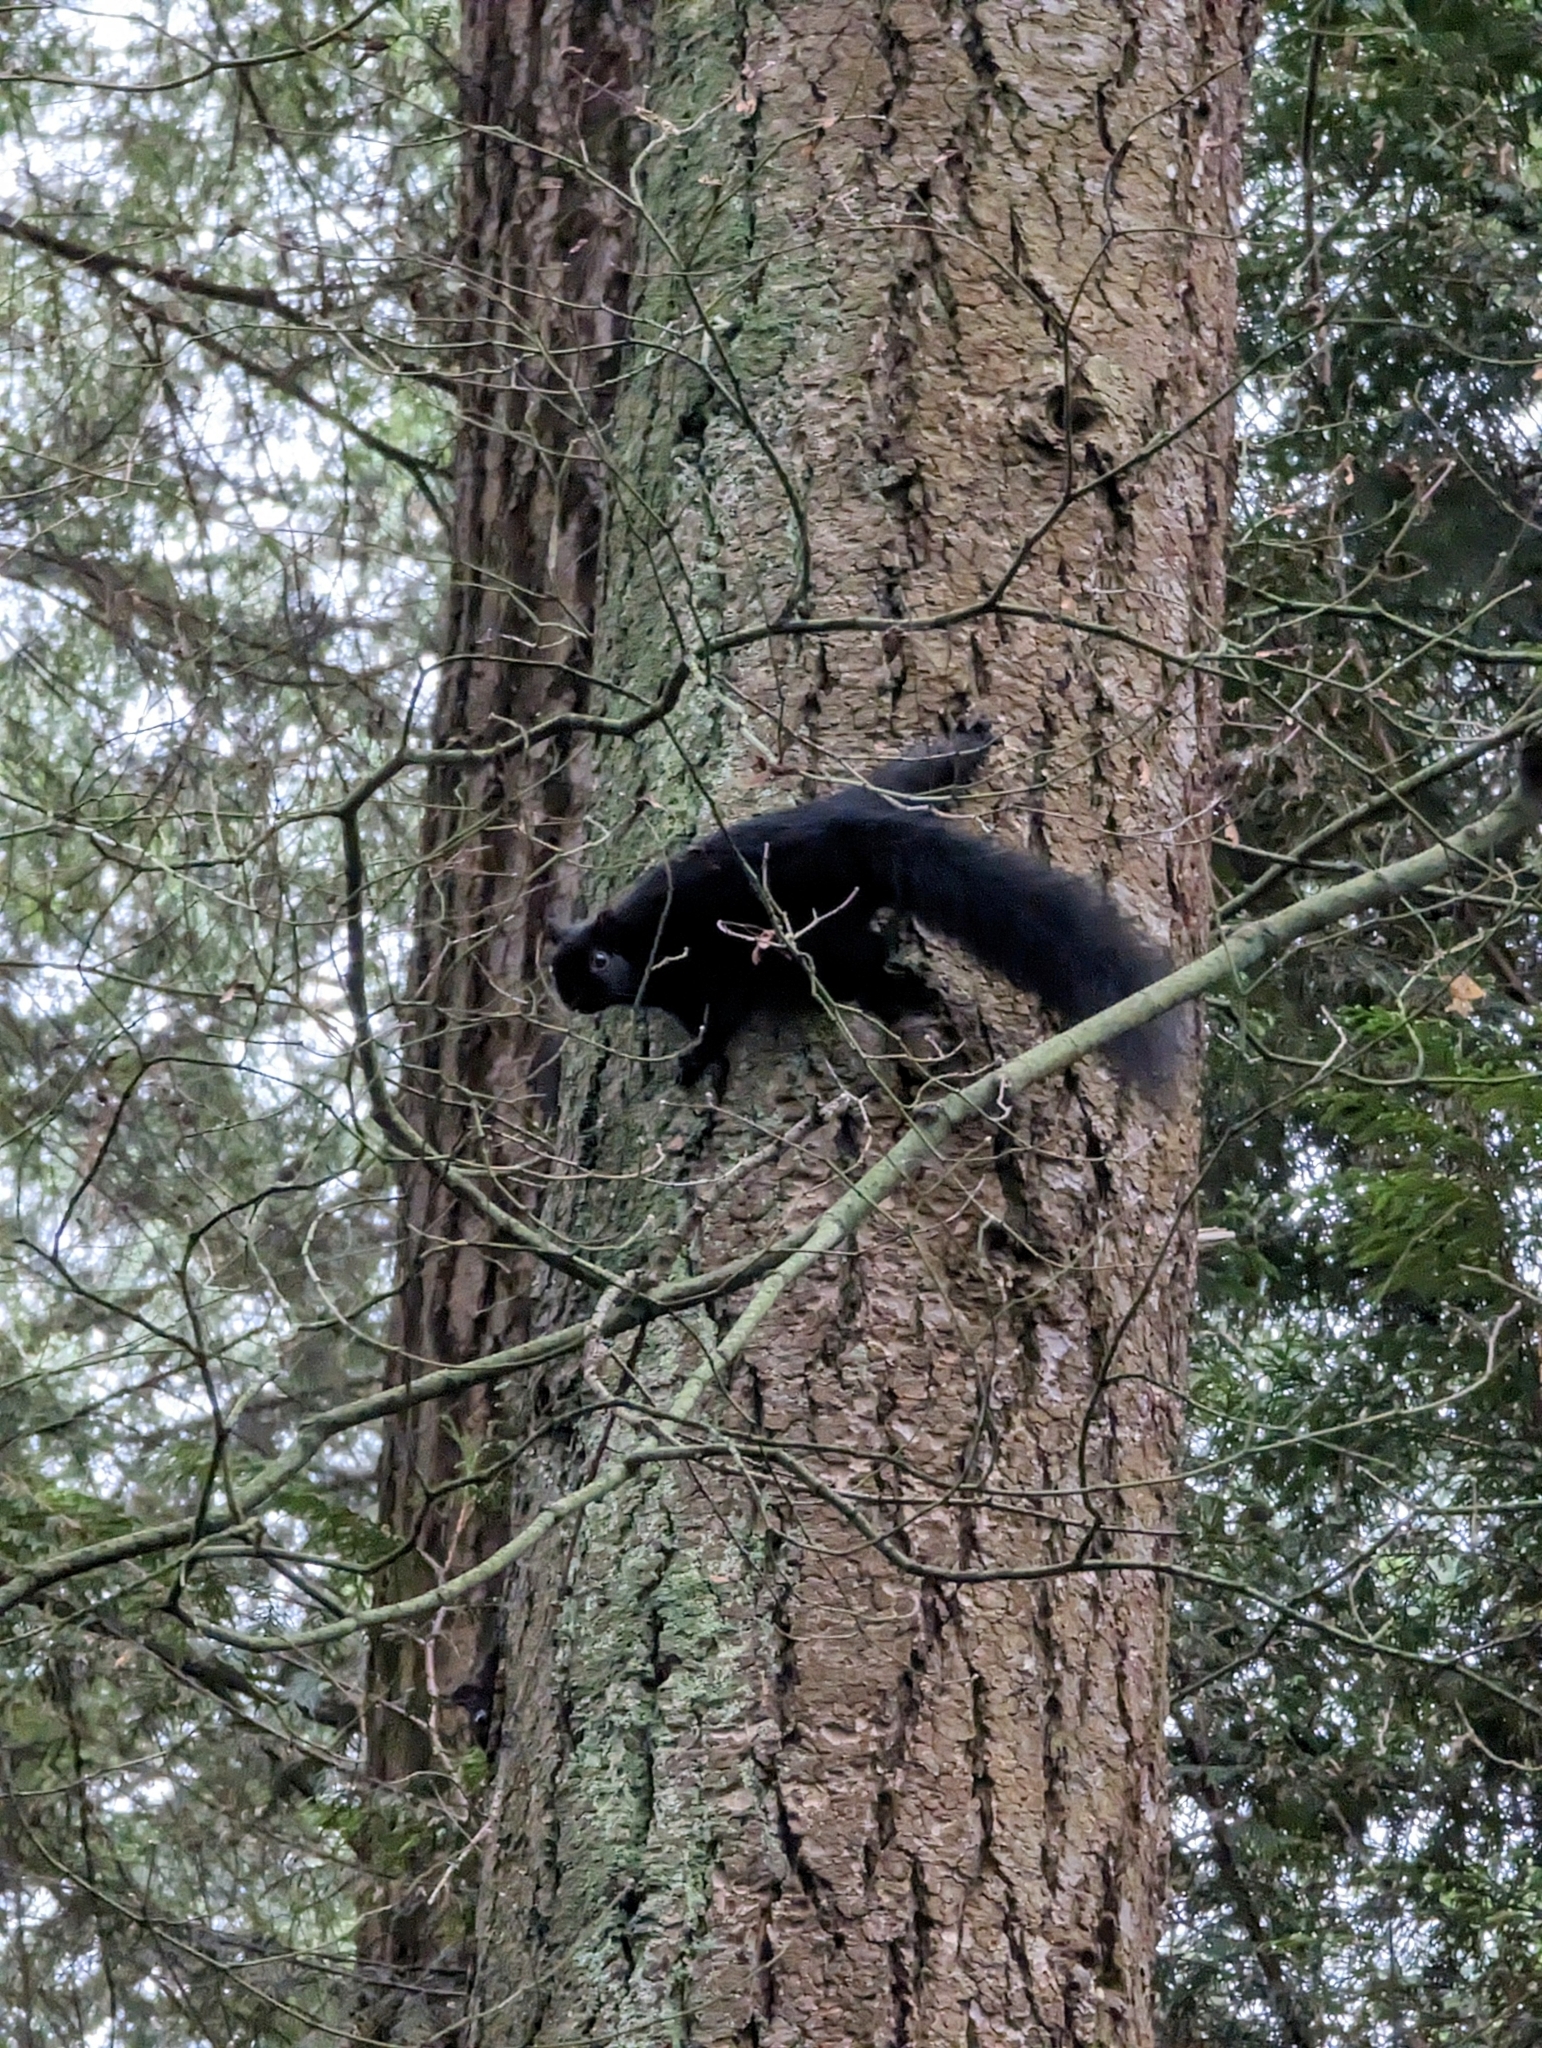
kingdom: Animalia
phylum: Chordata
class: Mammalia
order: Rodentia
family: Sciuridae
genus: Sciurus
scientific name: Sciurus carolinensis
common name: Eastern gray squirrel
